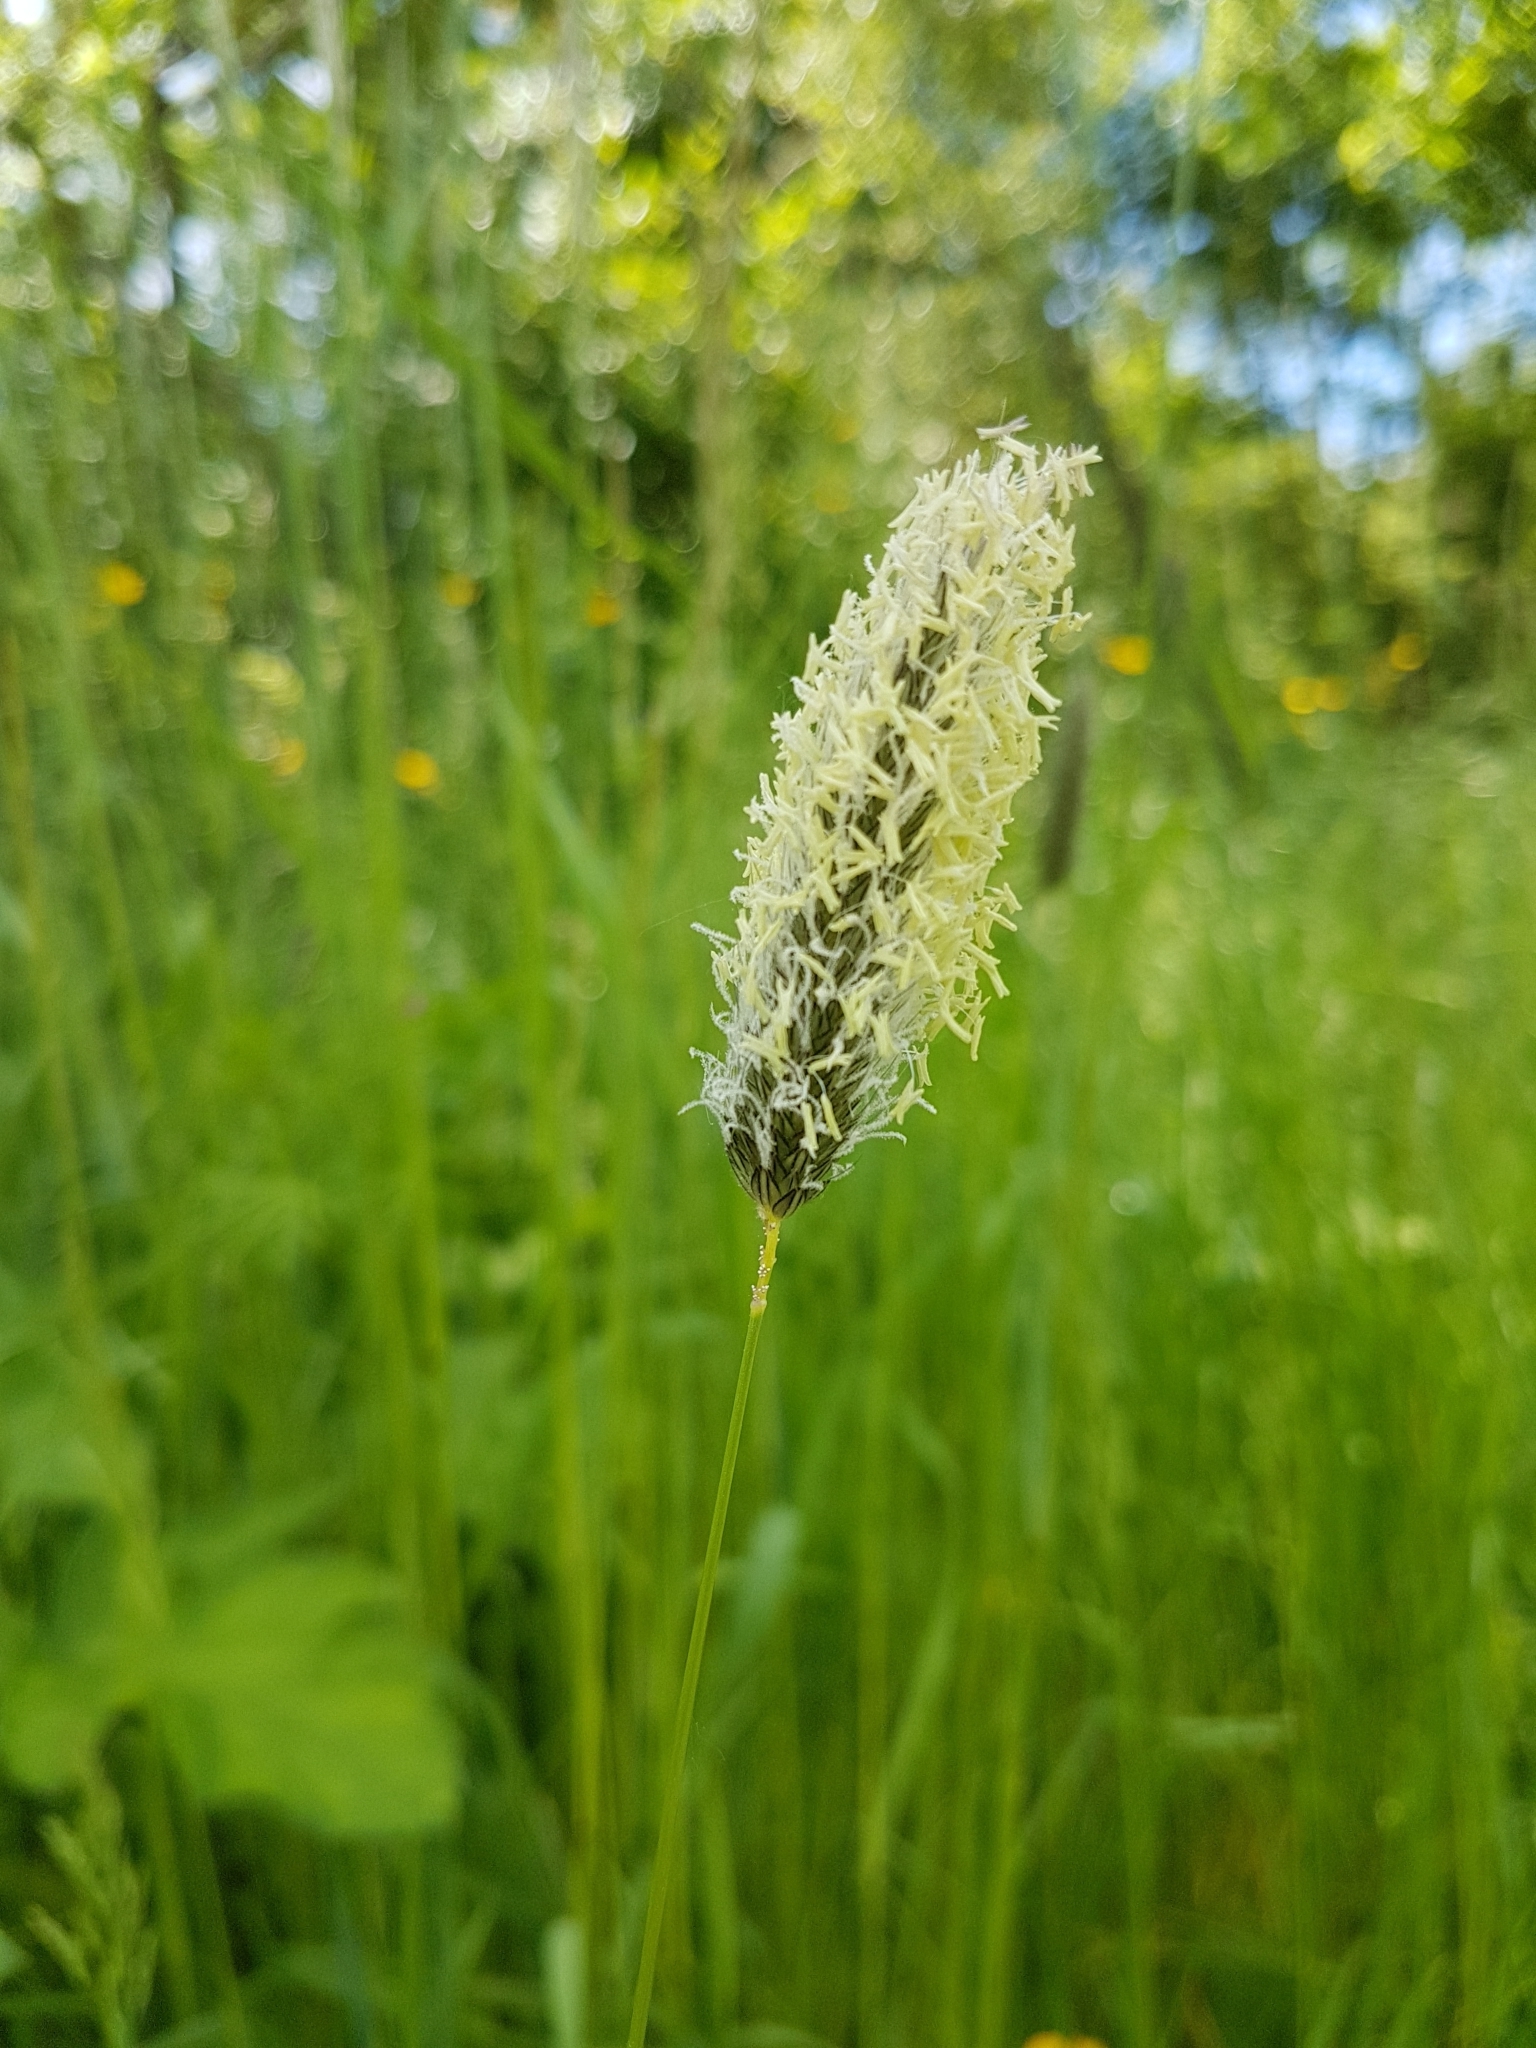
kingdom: Plantae
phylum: Tracheophyta
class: Liliopsida
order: Poales
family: Poaceae
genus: Alopecurus
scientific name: Alopecurus pratensis
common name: Meadow foxtail
